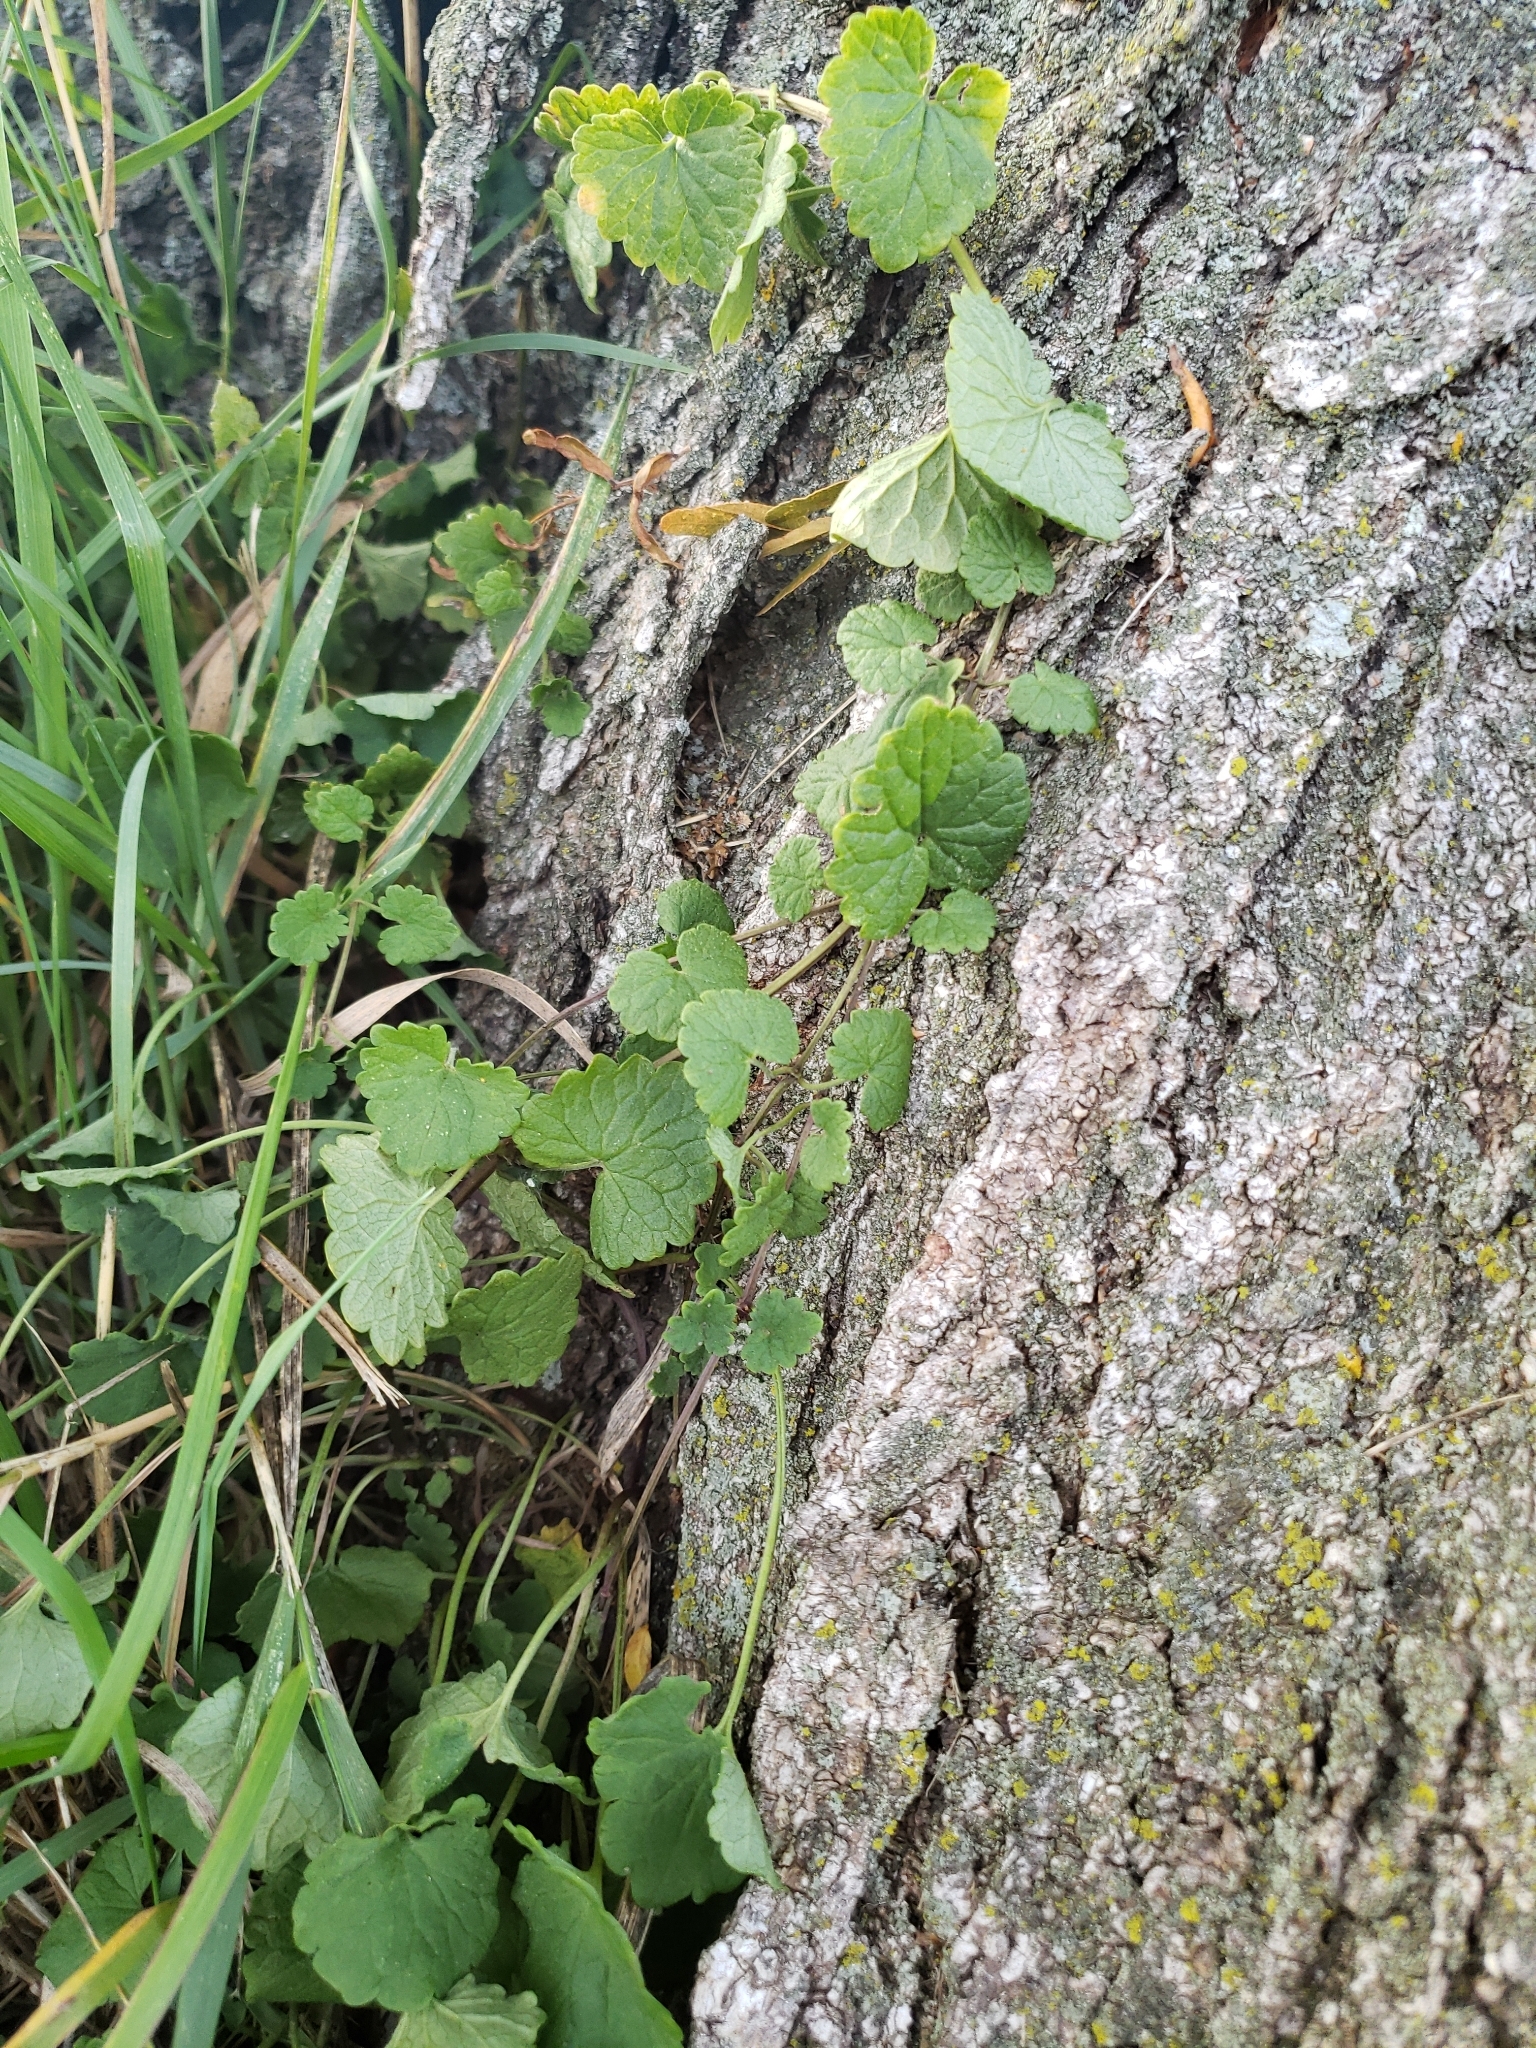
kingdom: Plantae
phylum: Tracheophyta
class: Magnoliopsida
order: Lamiales
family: Lamiaceae
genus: Glechoma
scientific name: Glechoma hederacea
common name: Ground ivy
